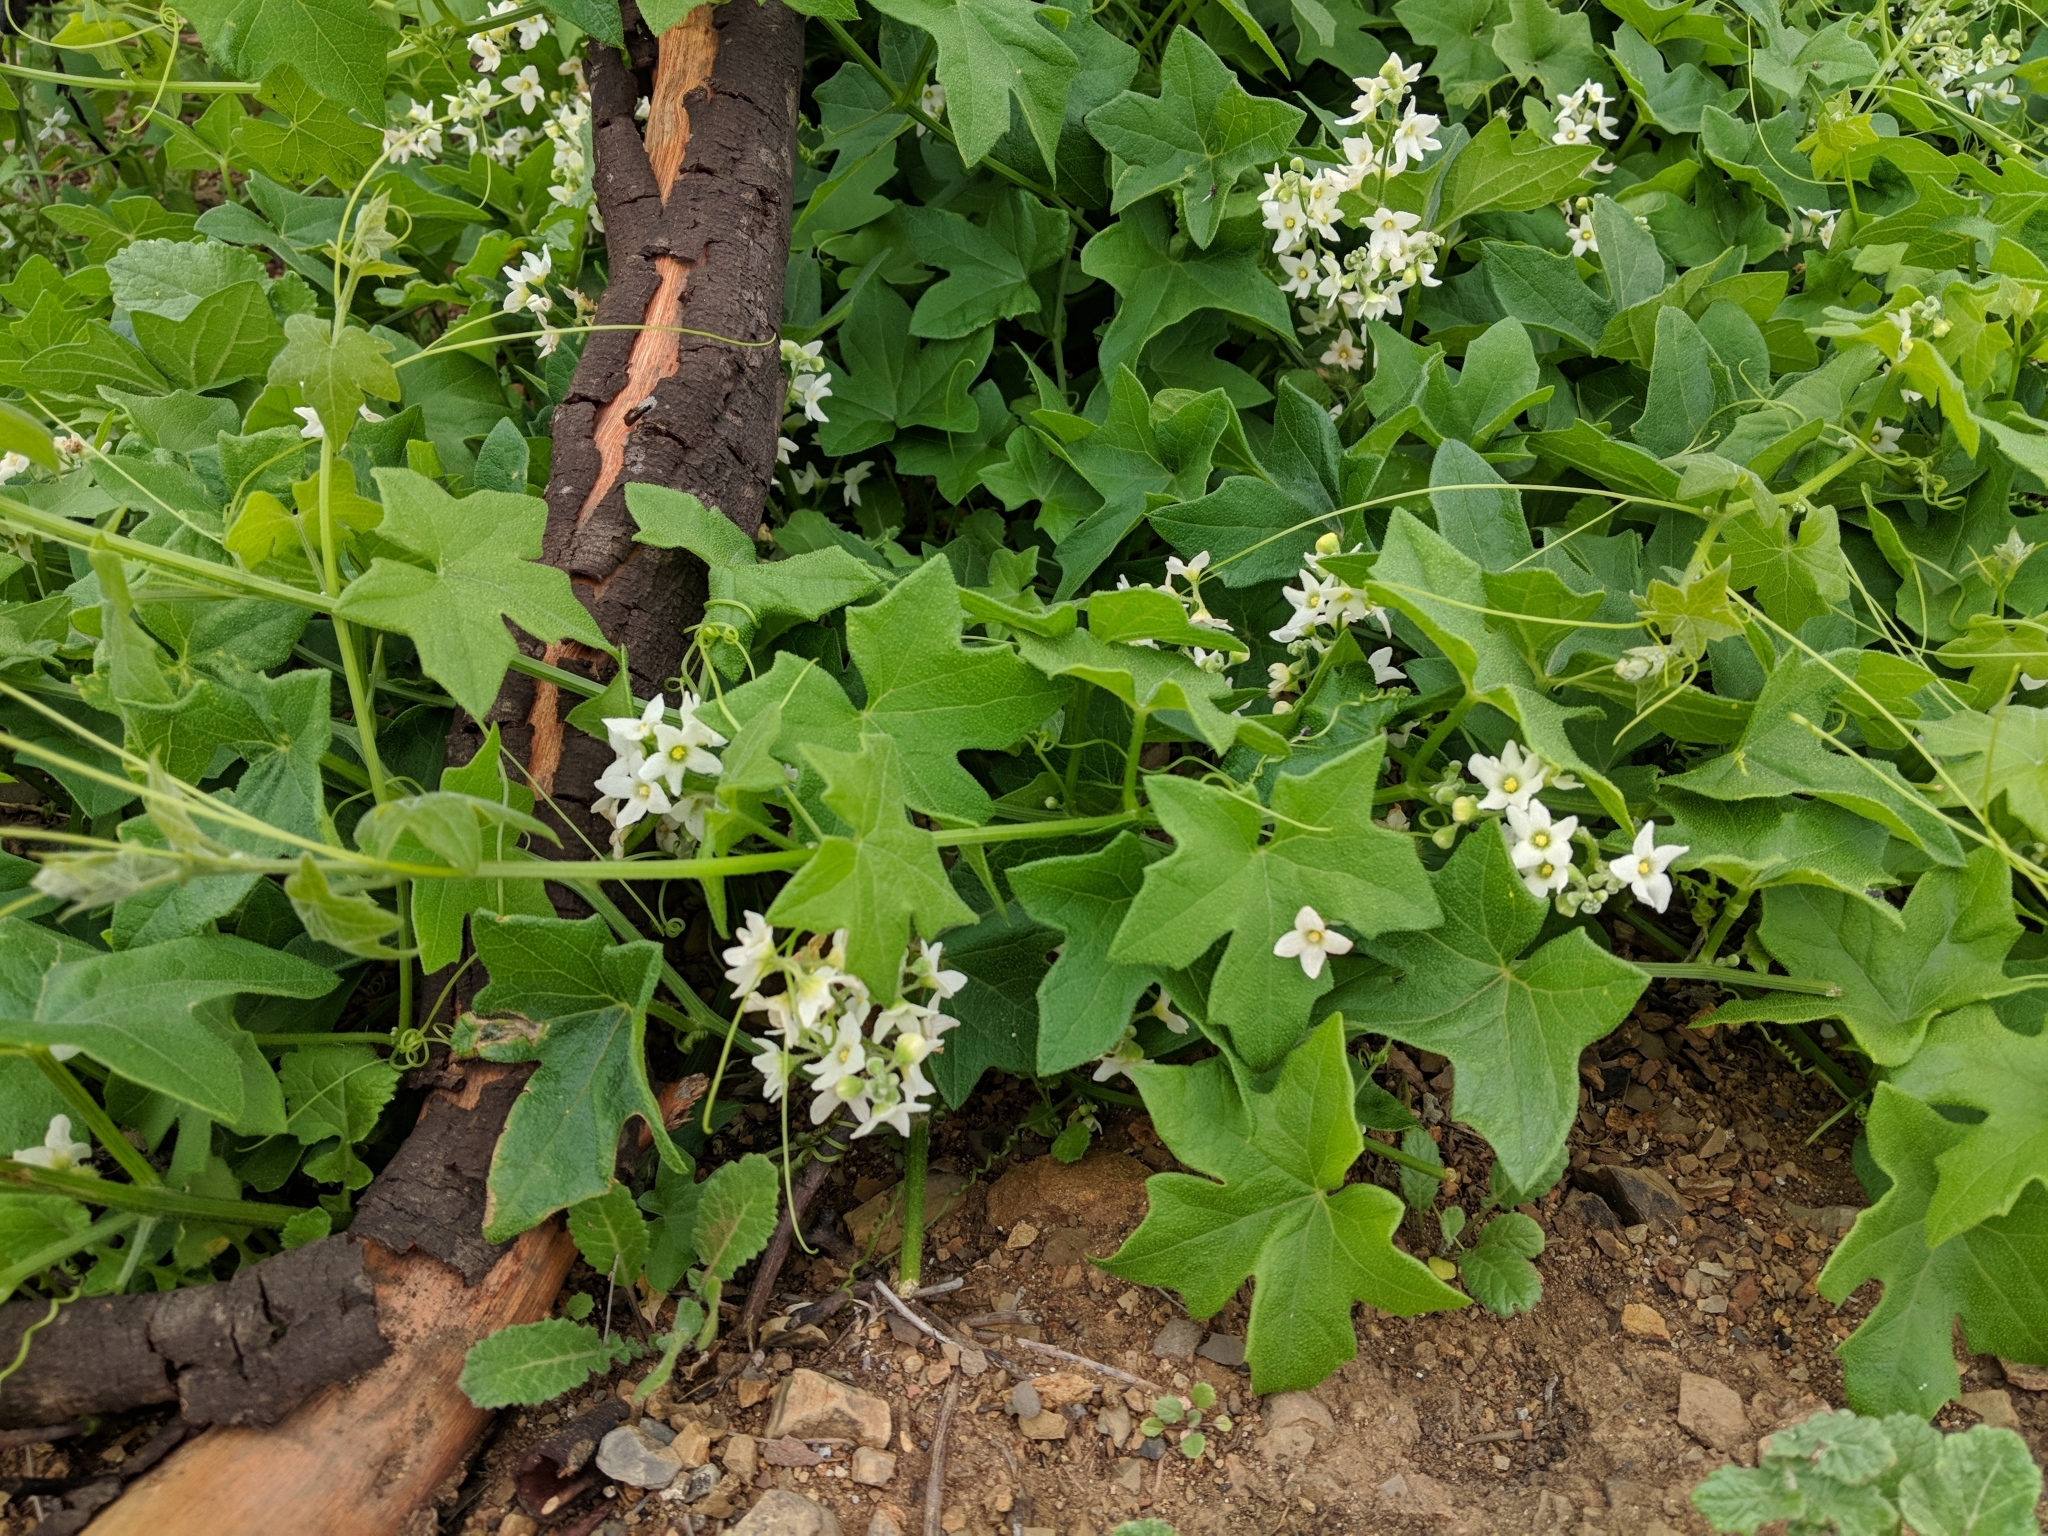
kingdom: Plantae
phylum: Tracheophyta
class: Magnoliopsida
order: Cucurbitales
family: Cucurbitaceae
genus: Marah
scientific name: Marah macrocarpa
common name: Cucamonga manroot
